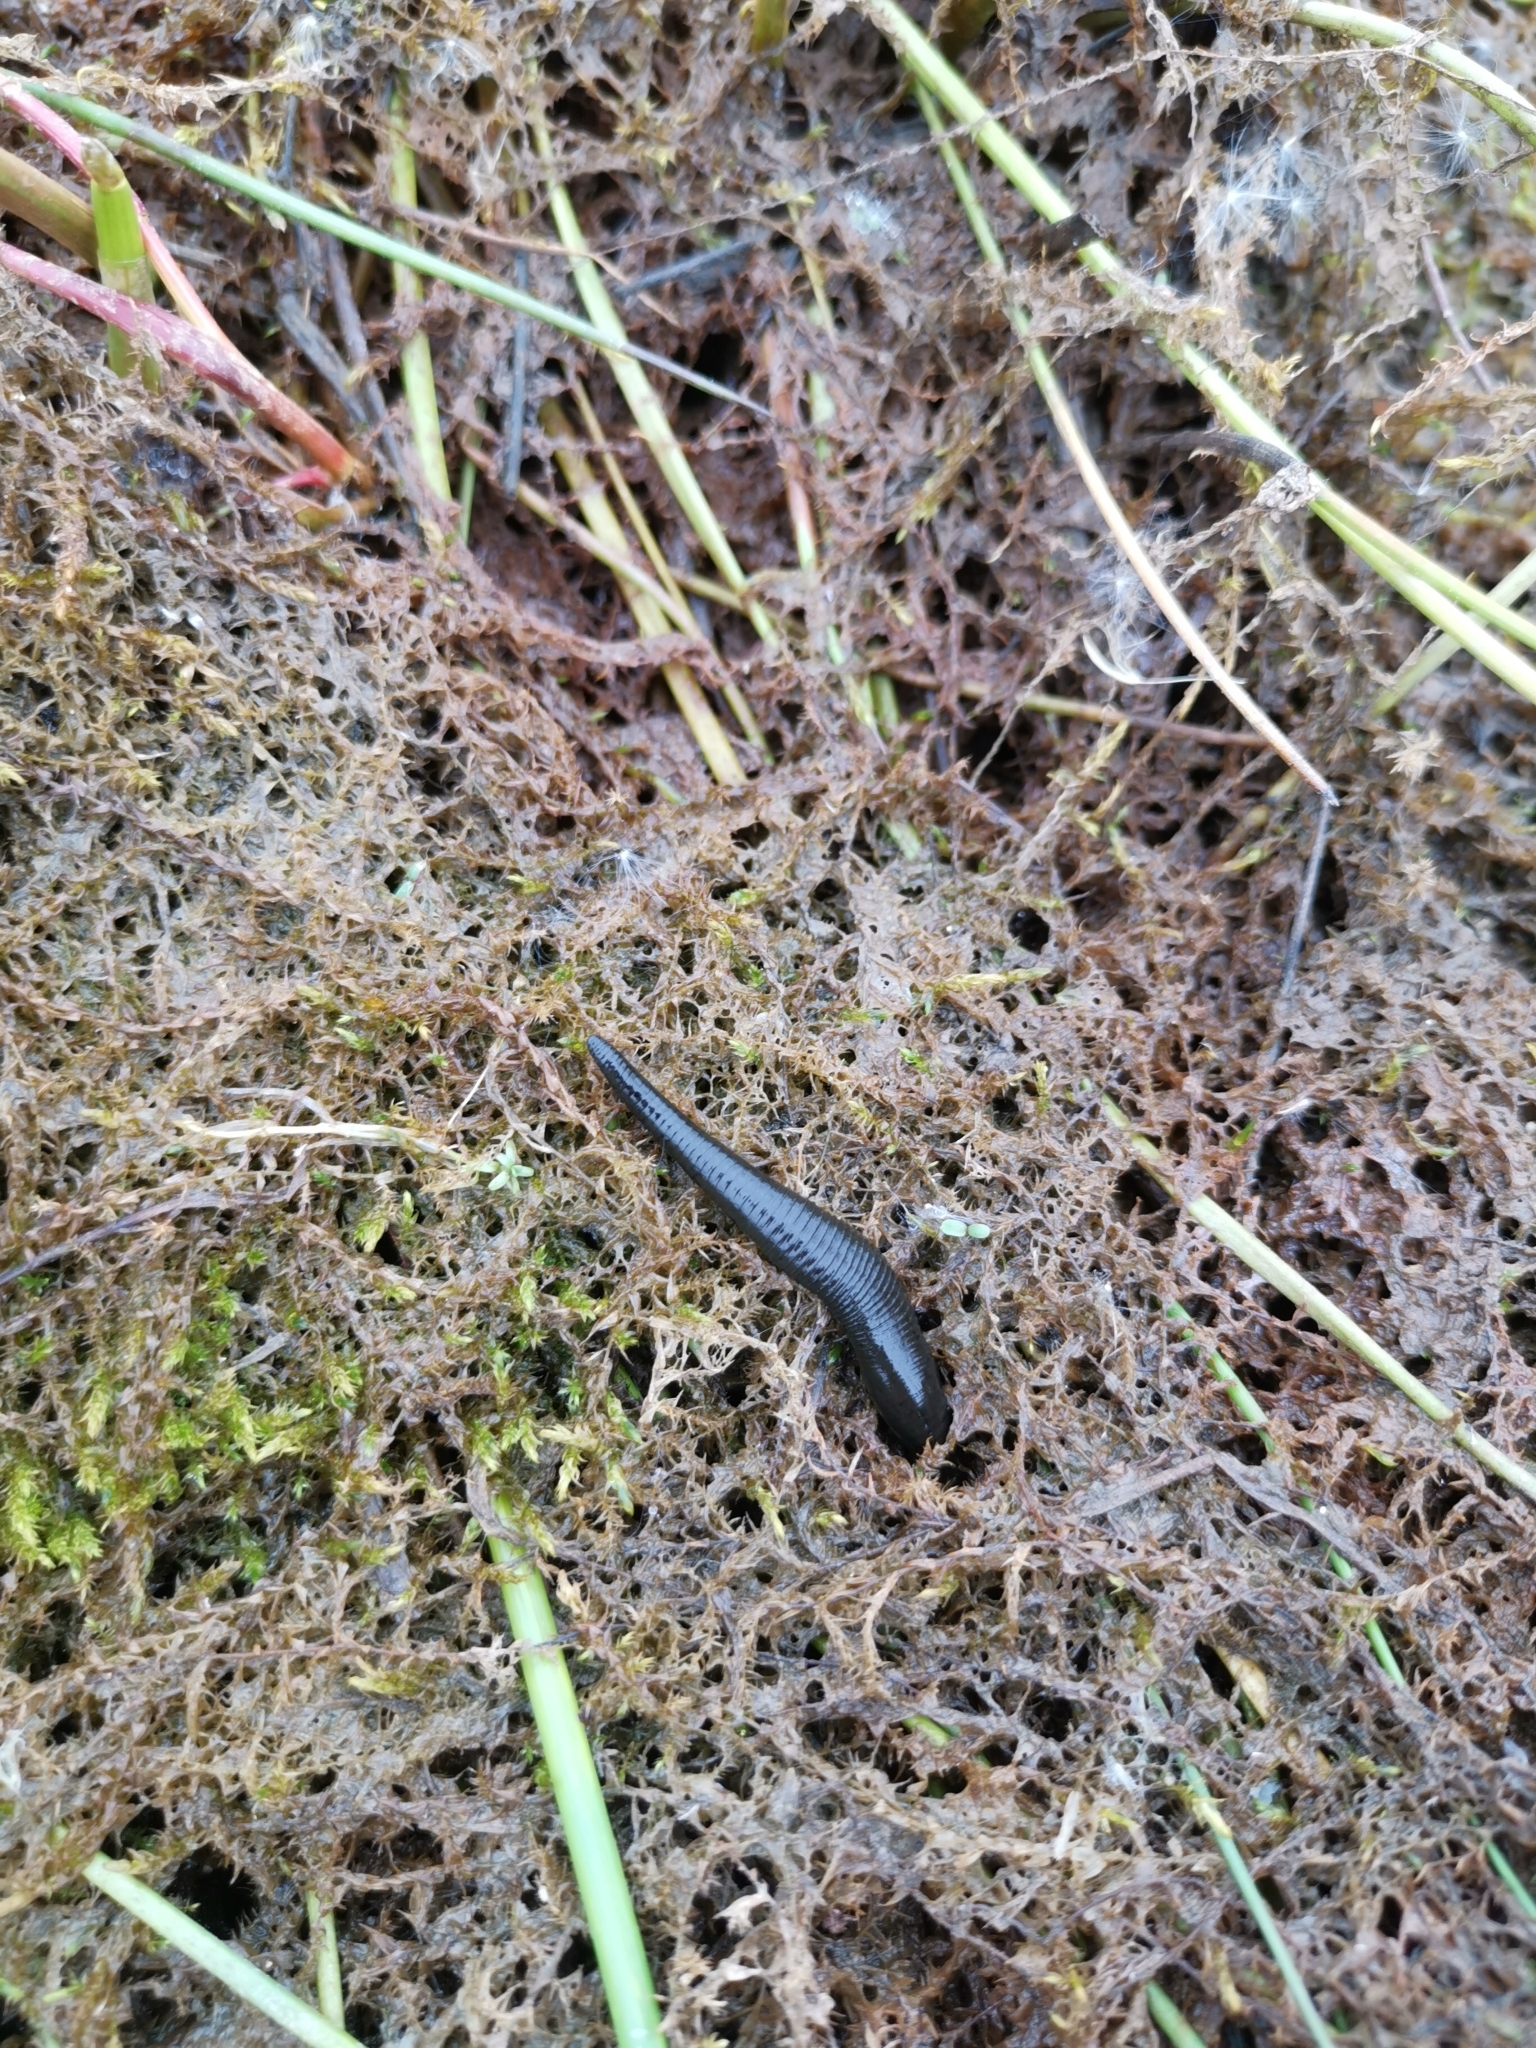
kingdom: Animalia
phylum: Annelida
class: Clitellata
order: Arhynchobdellida
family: Haemopidae
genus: Haemopis
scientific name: Haemopis sanguisuga
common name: Horse leech
